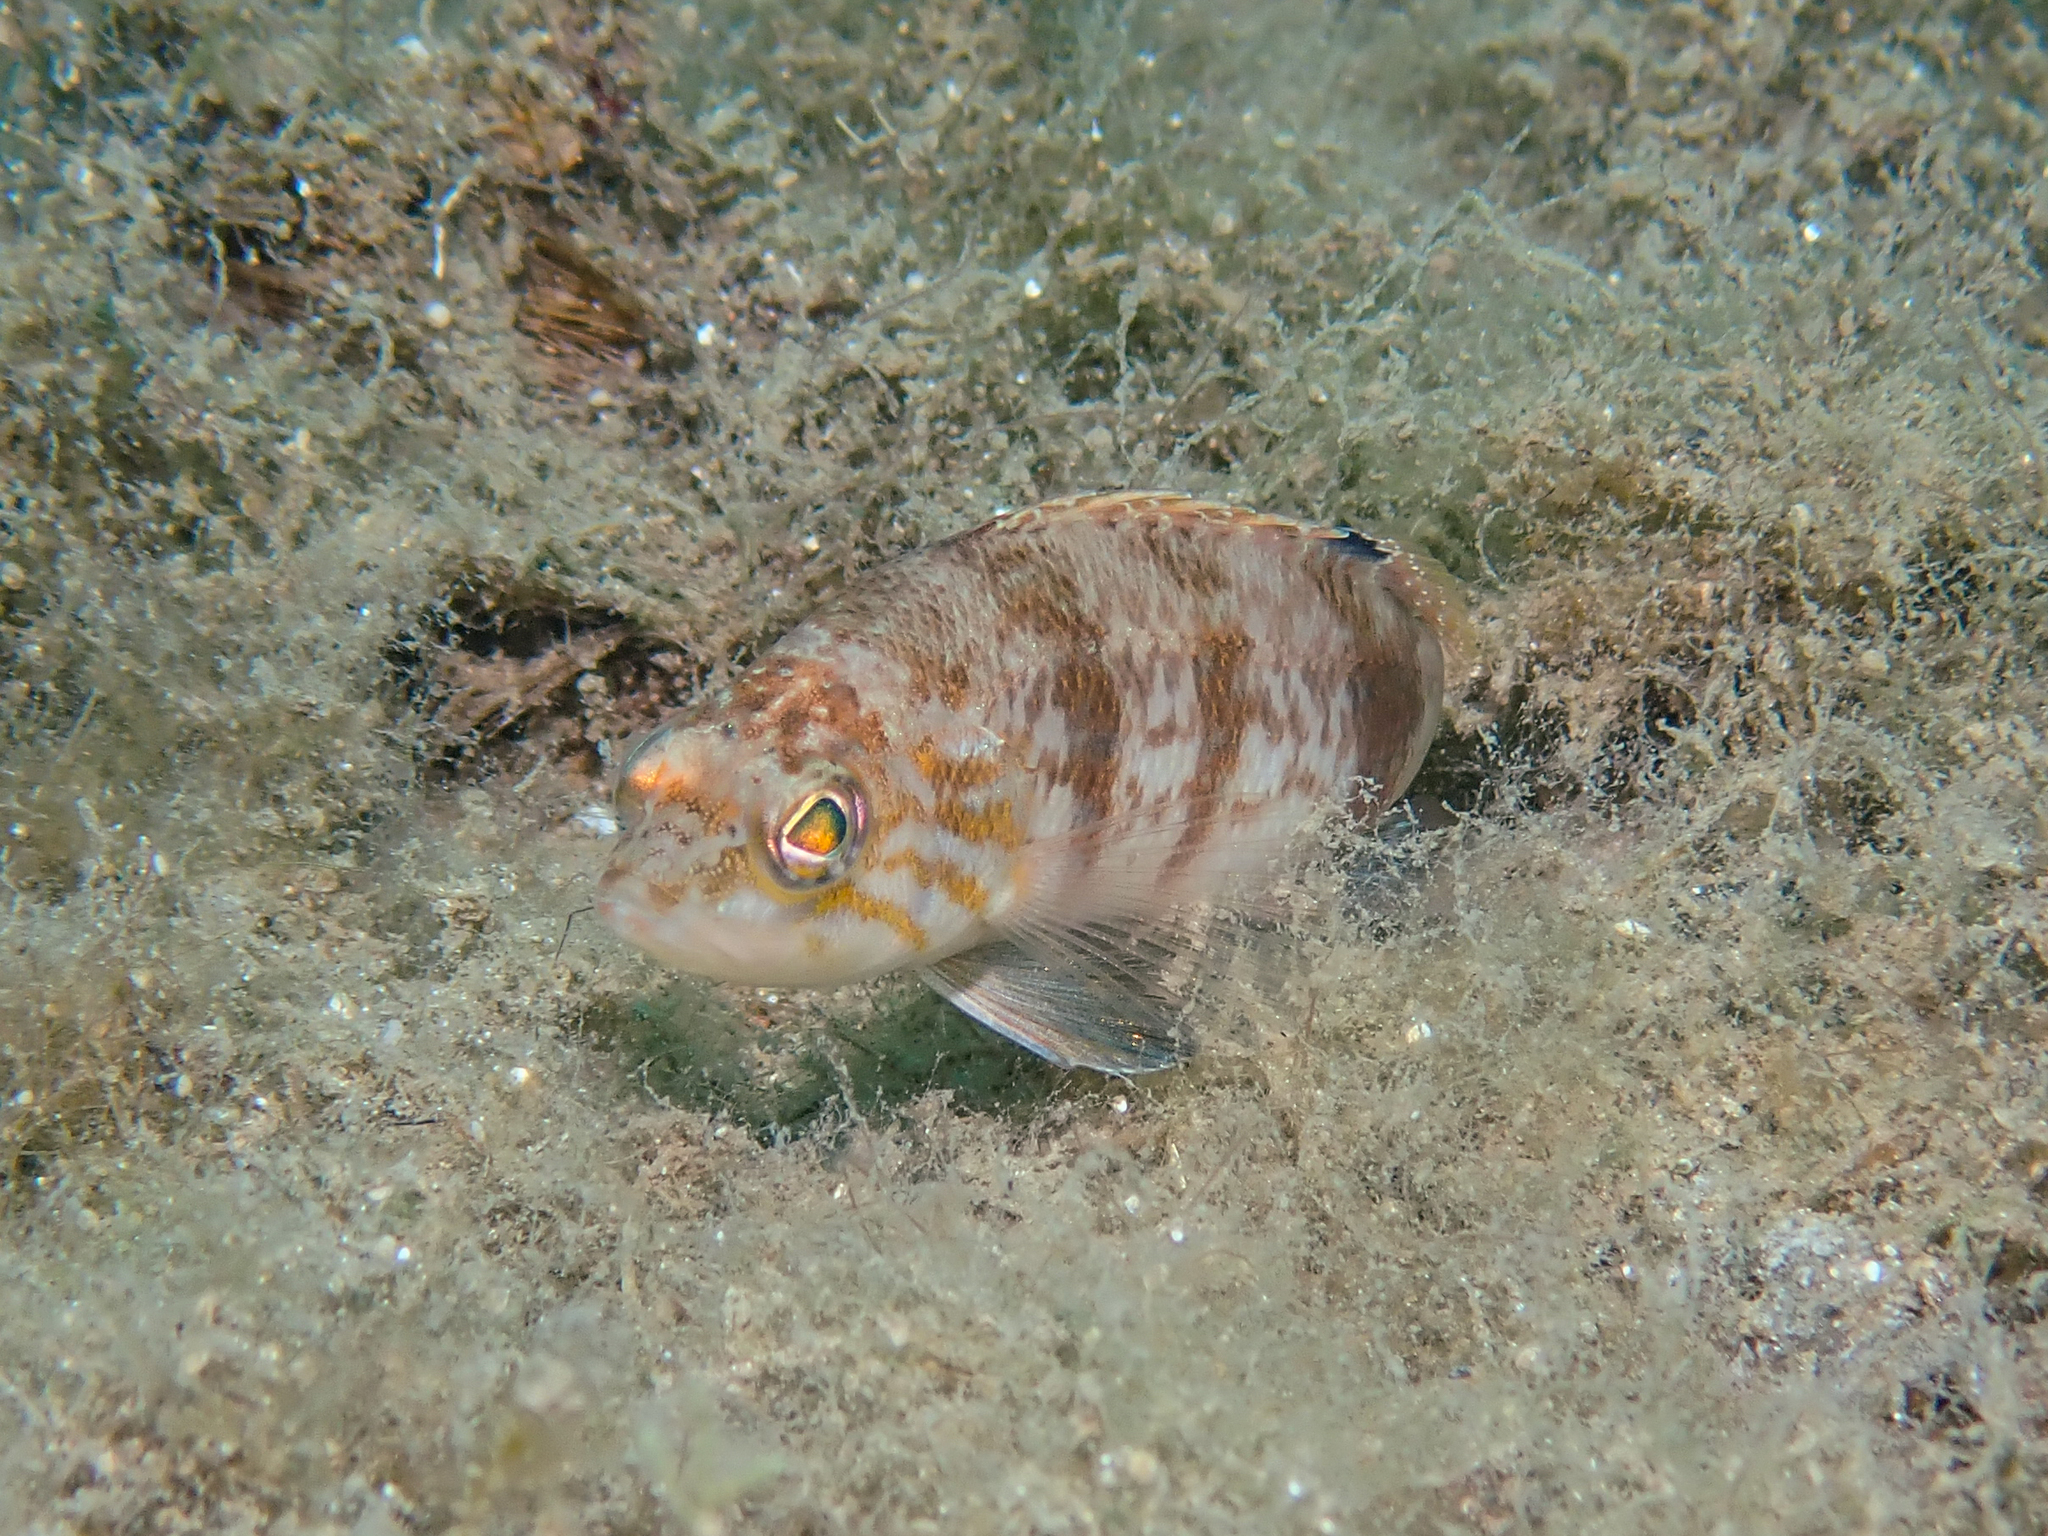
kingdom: Animalia
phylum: Chordata
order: Perciformes
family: Serranidae
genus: Serranus
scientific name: Serranus hepatus
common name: Brown comber
